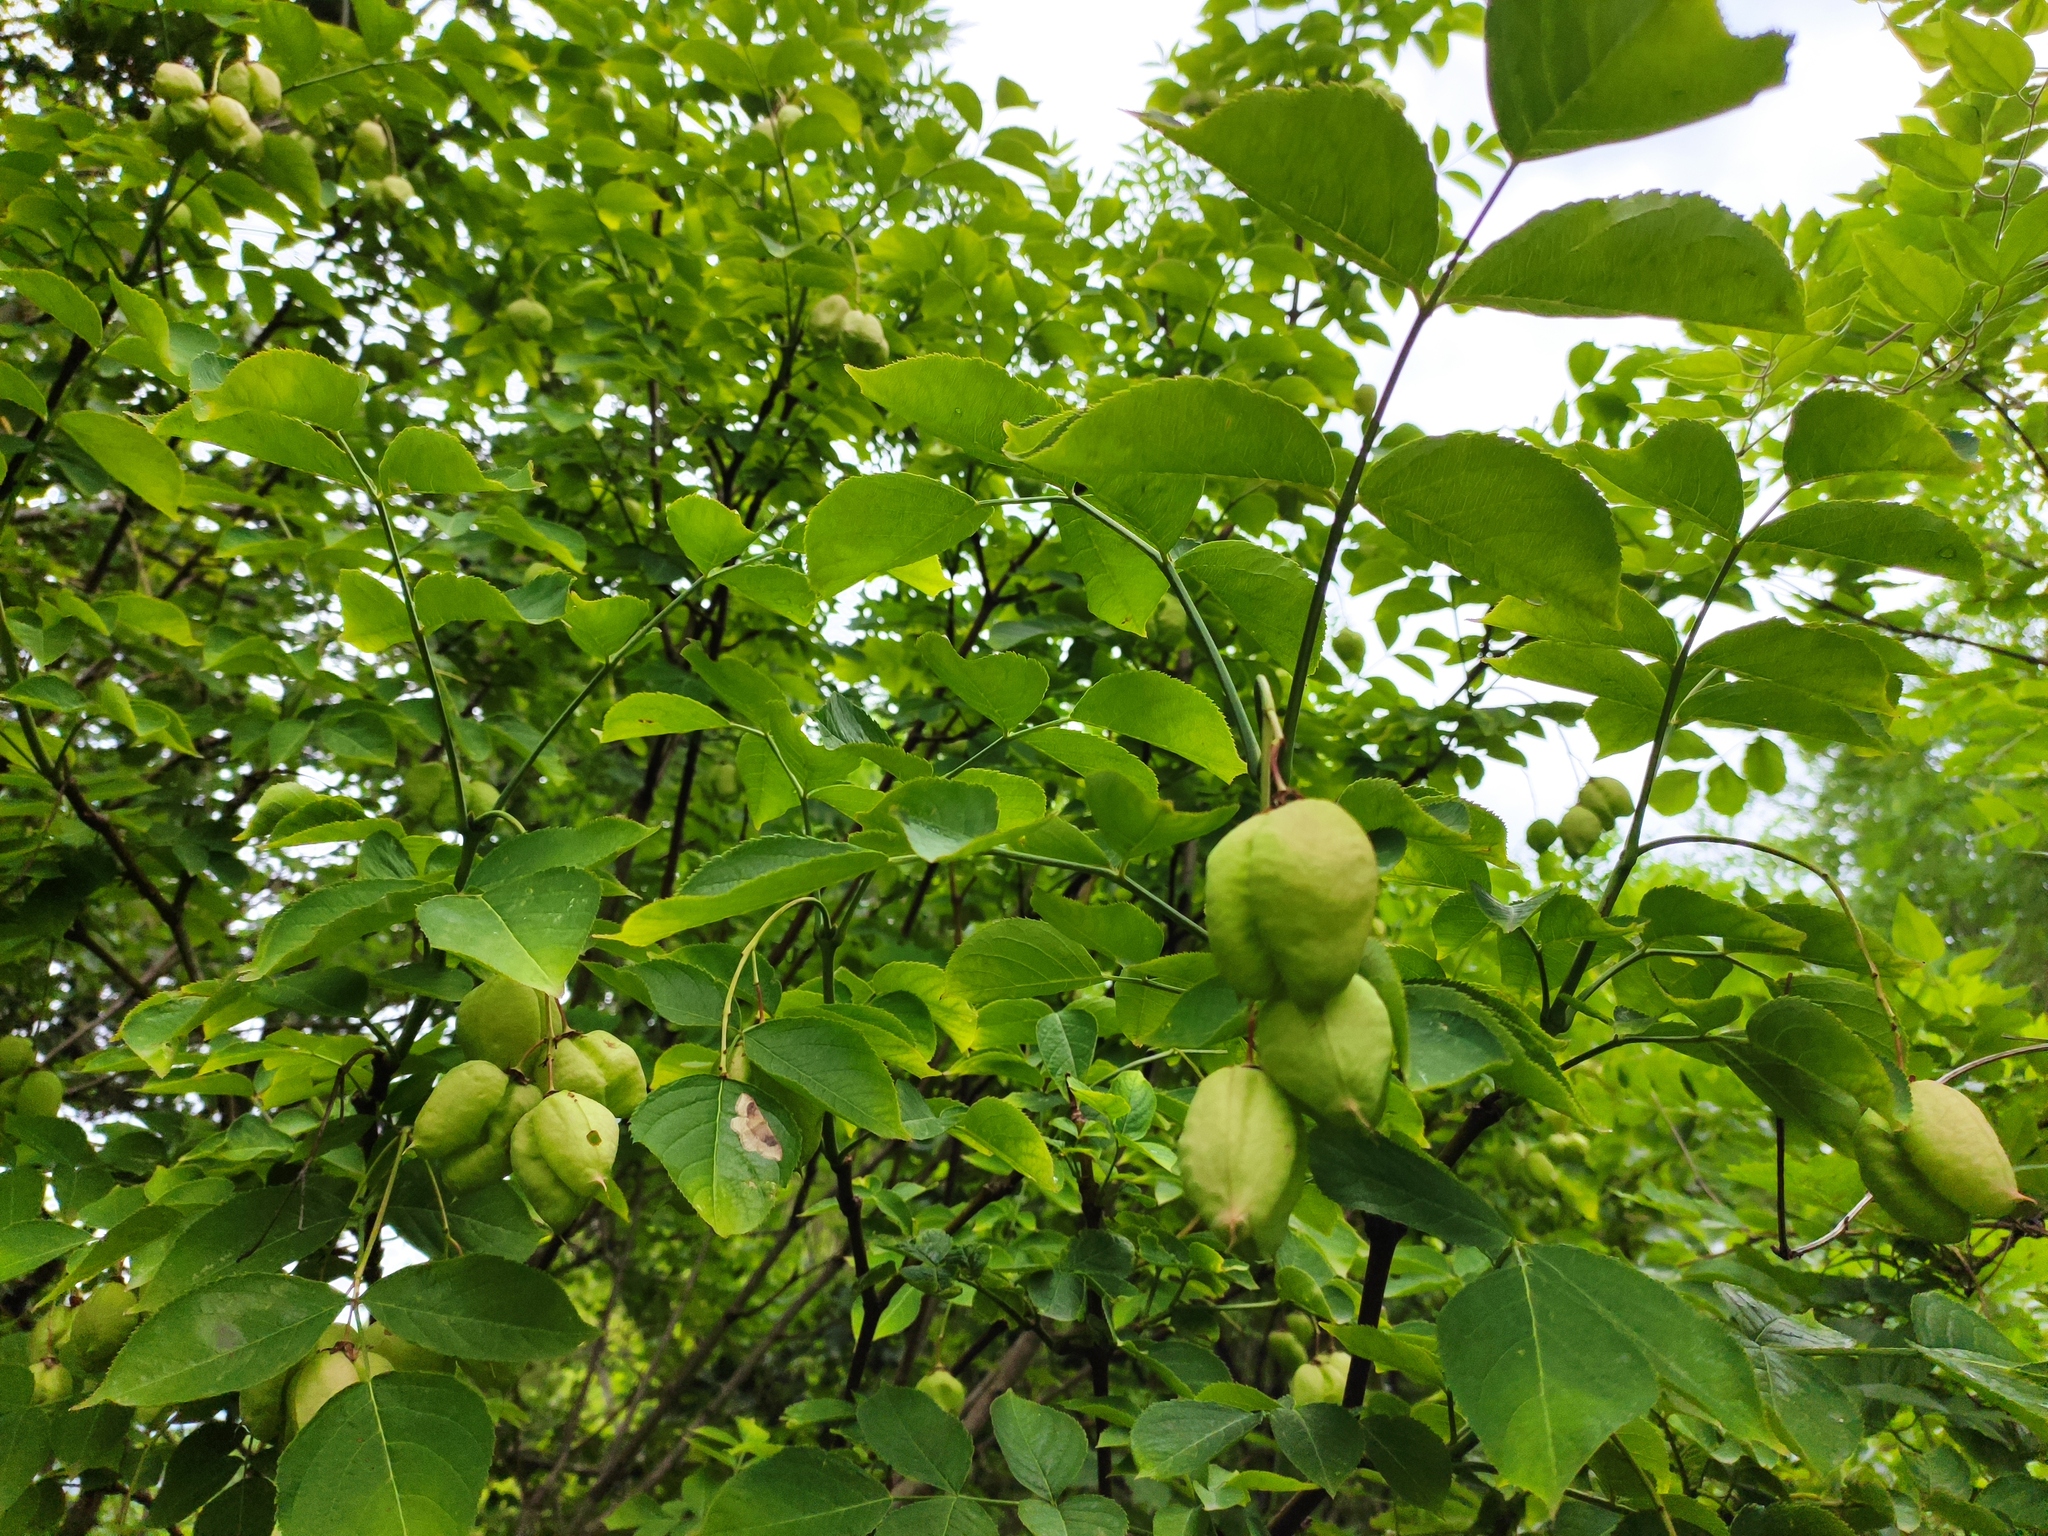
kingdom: Plantae
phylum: Tracheophyta
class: Magnoliopsida
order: Crossosomatales
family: Staphyleaceae
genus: Staphylea
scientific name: Staphylea pinnata
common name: Bladdernut
